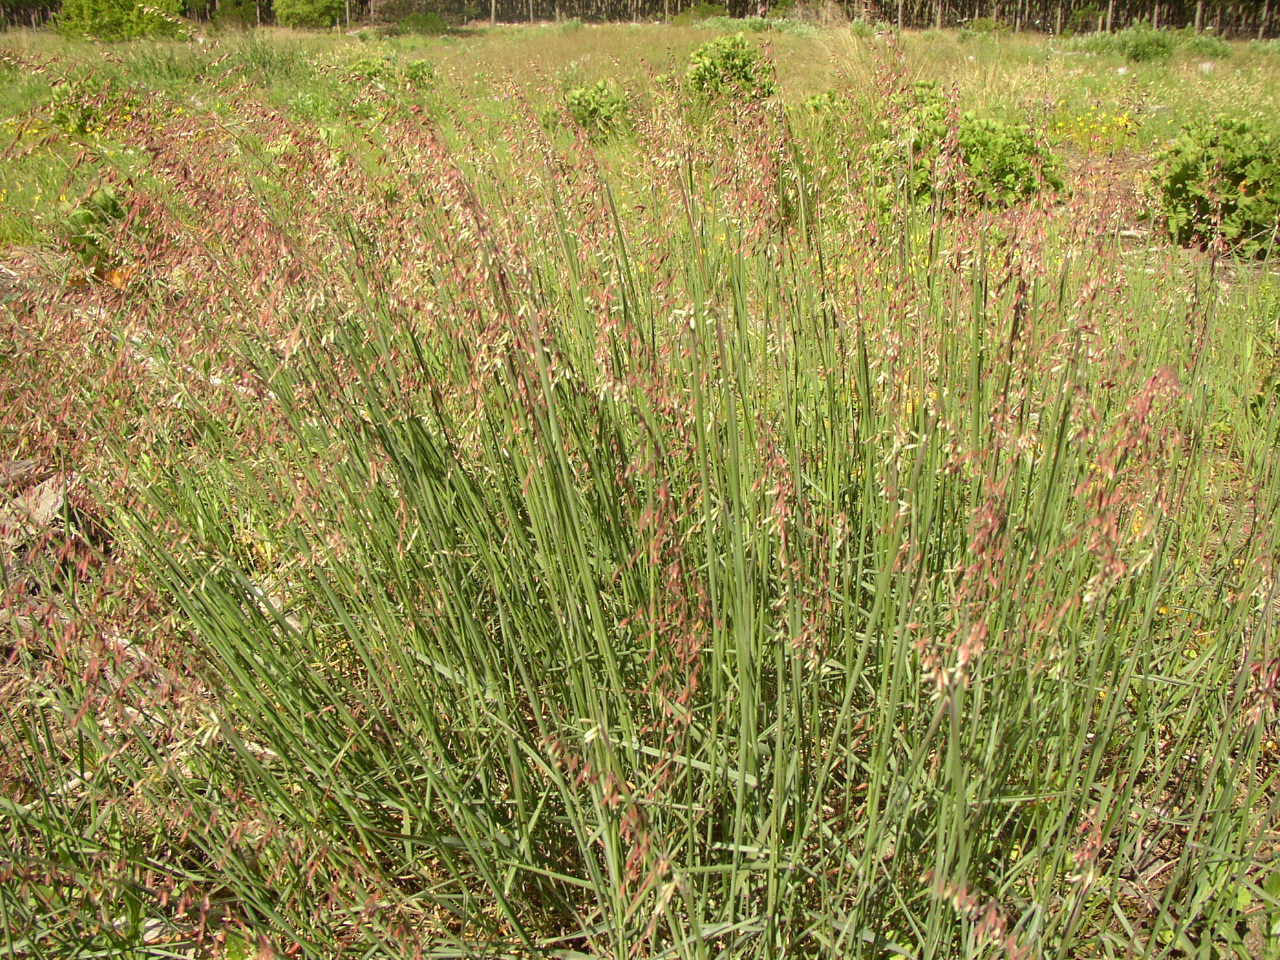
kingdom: Plantae
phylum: Tracheophyta
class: Liliopsida
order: Poales
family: Poaceae
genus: Ehrharta
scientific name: Ehrharta calycina
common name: Perennial veldtgrass
